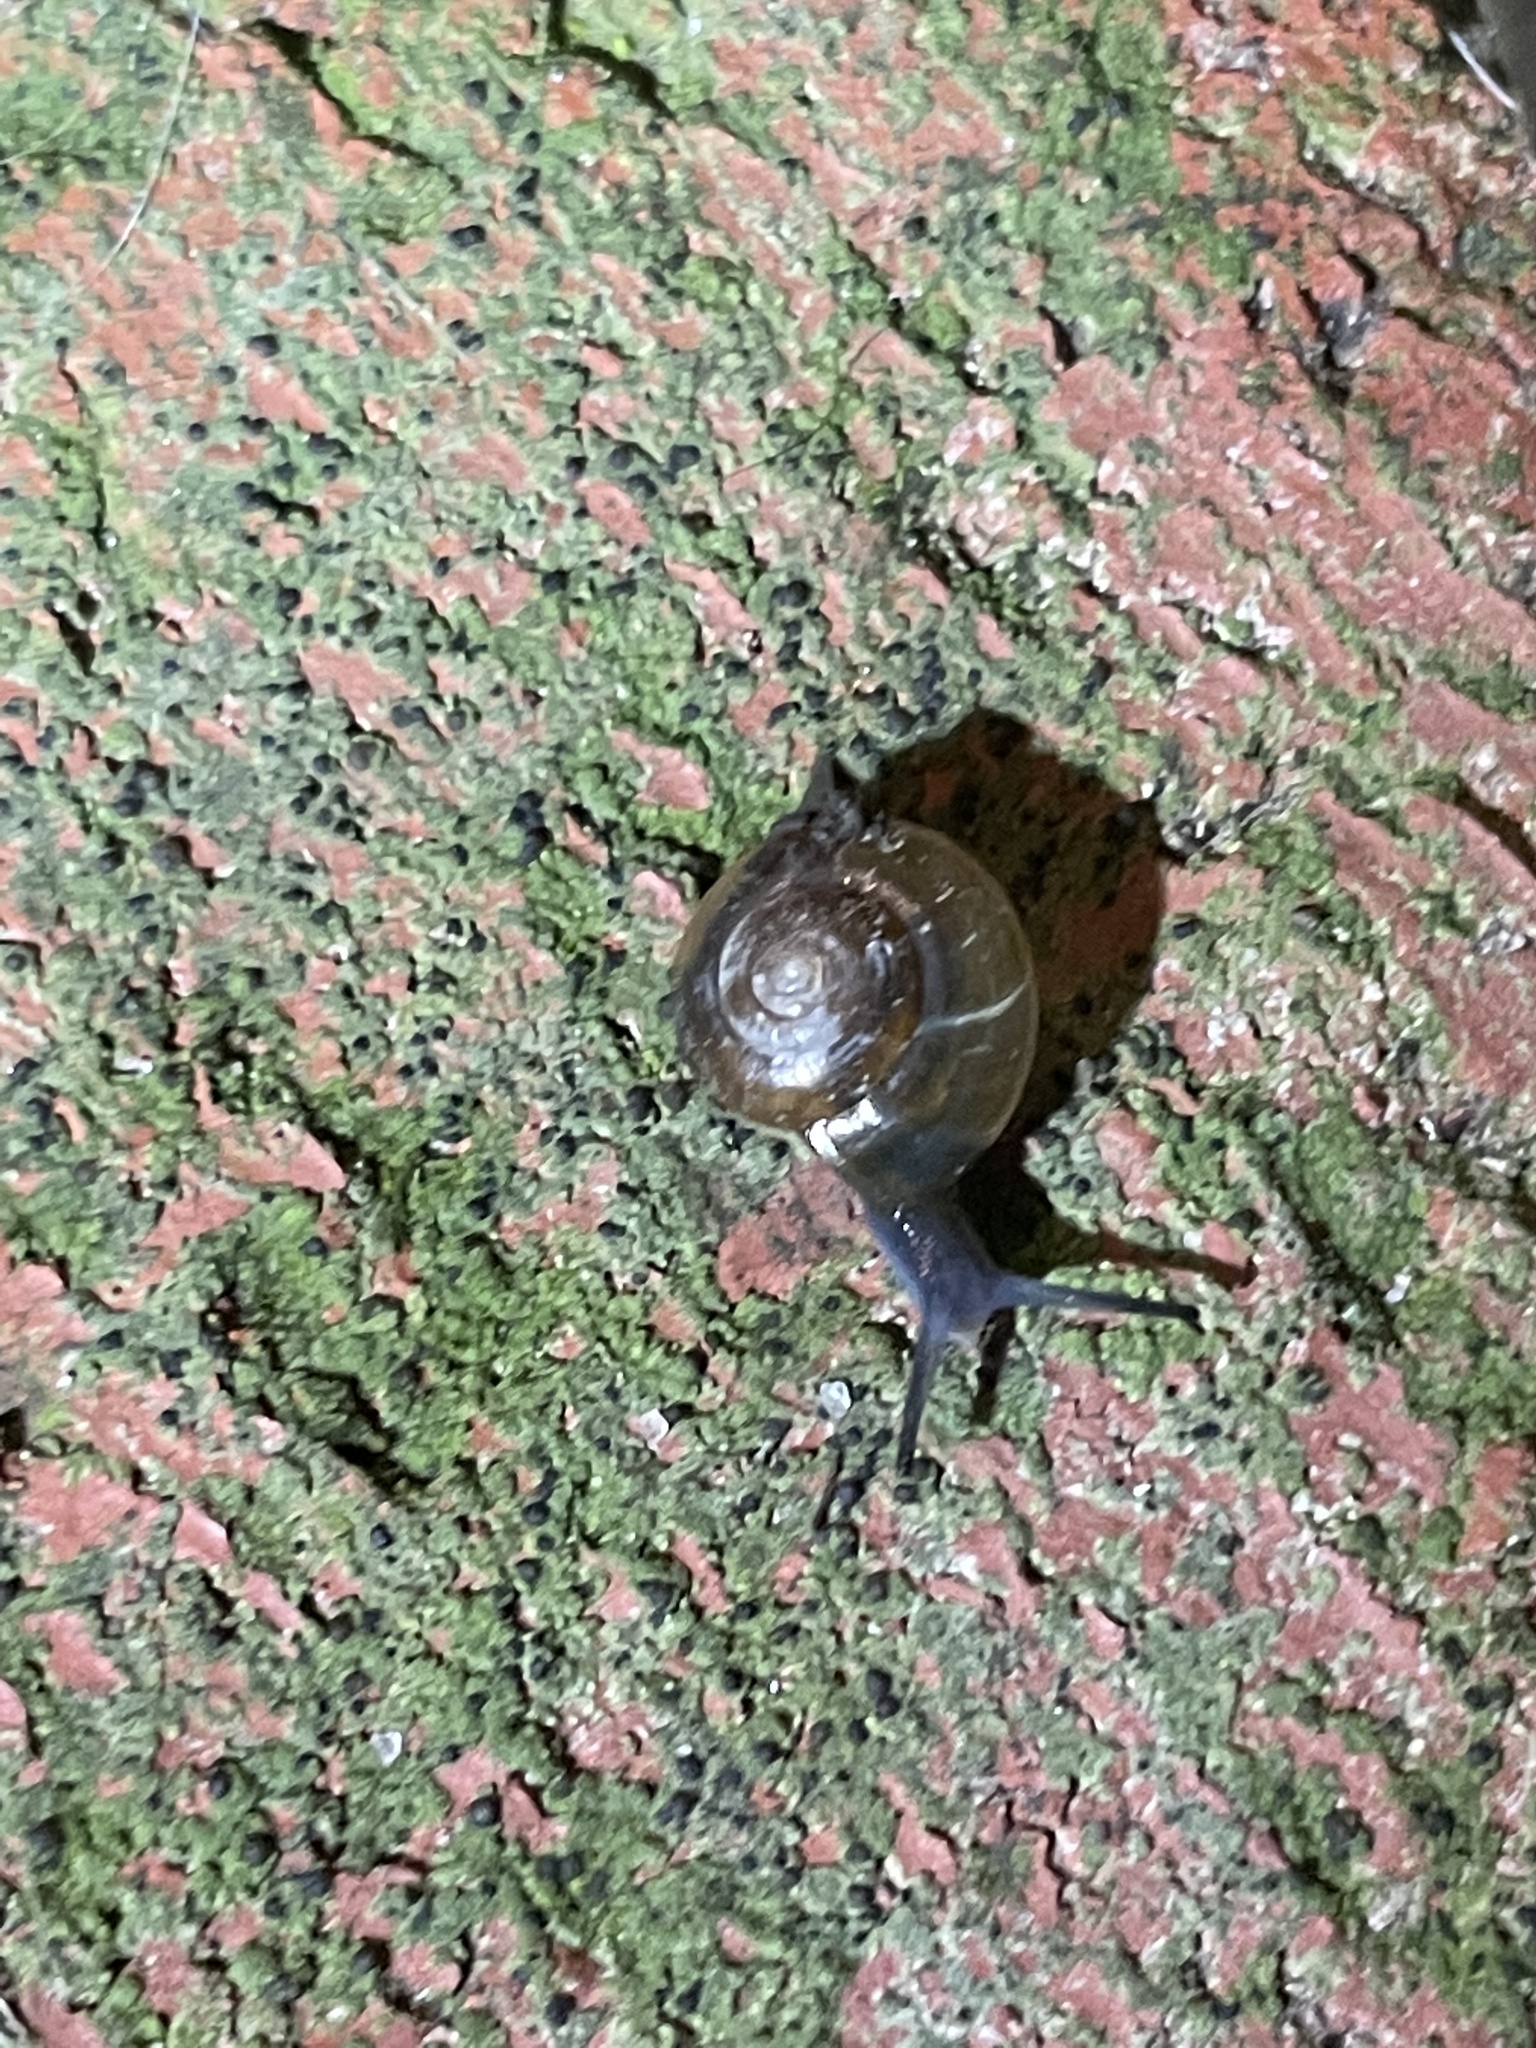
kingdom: Animalia
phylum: Mollusca
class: Gastropoda
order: Stylommatophora
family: Oxychilidae
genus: Oxychilus
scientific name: Oxychilus draparnaudi
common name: Draparnaud's glass snail
